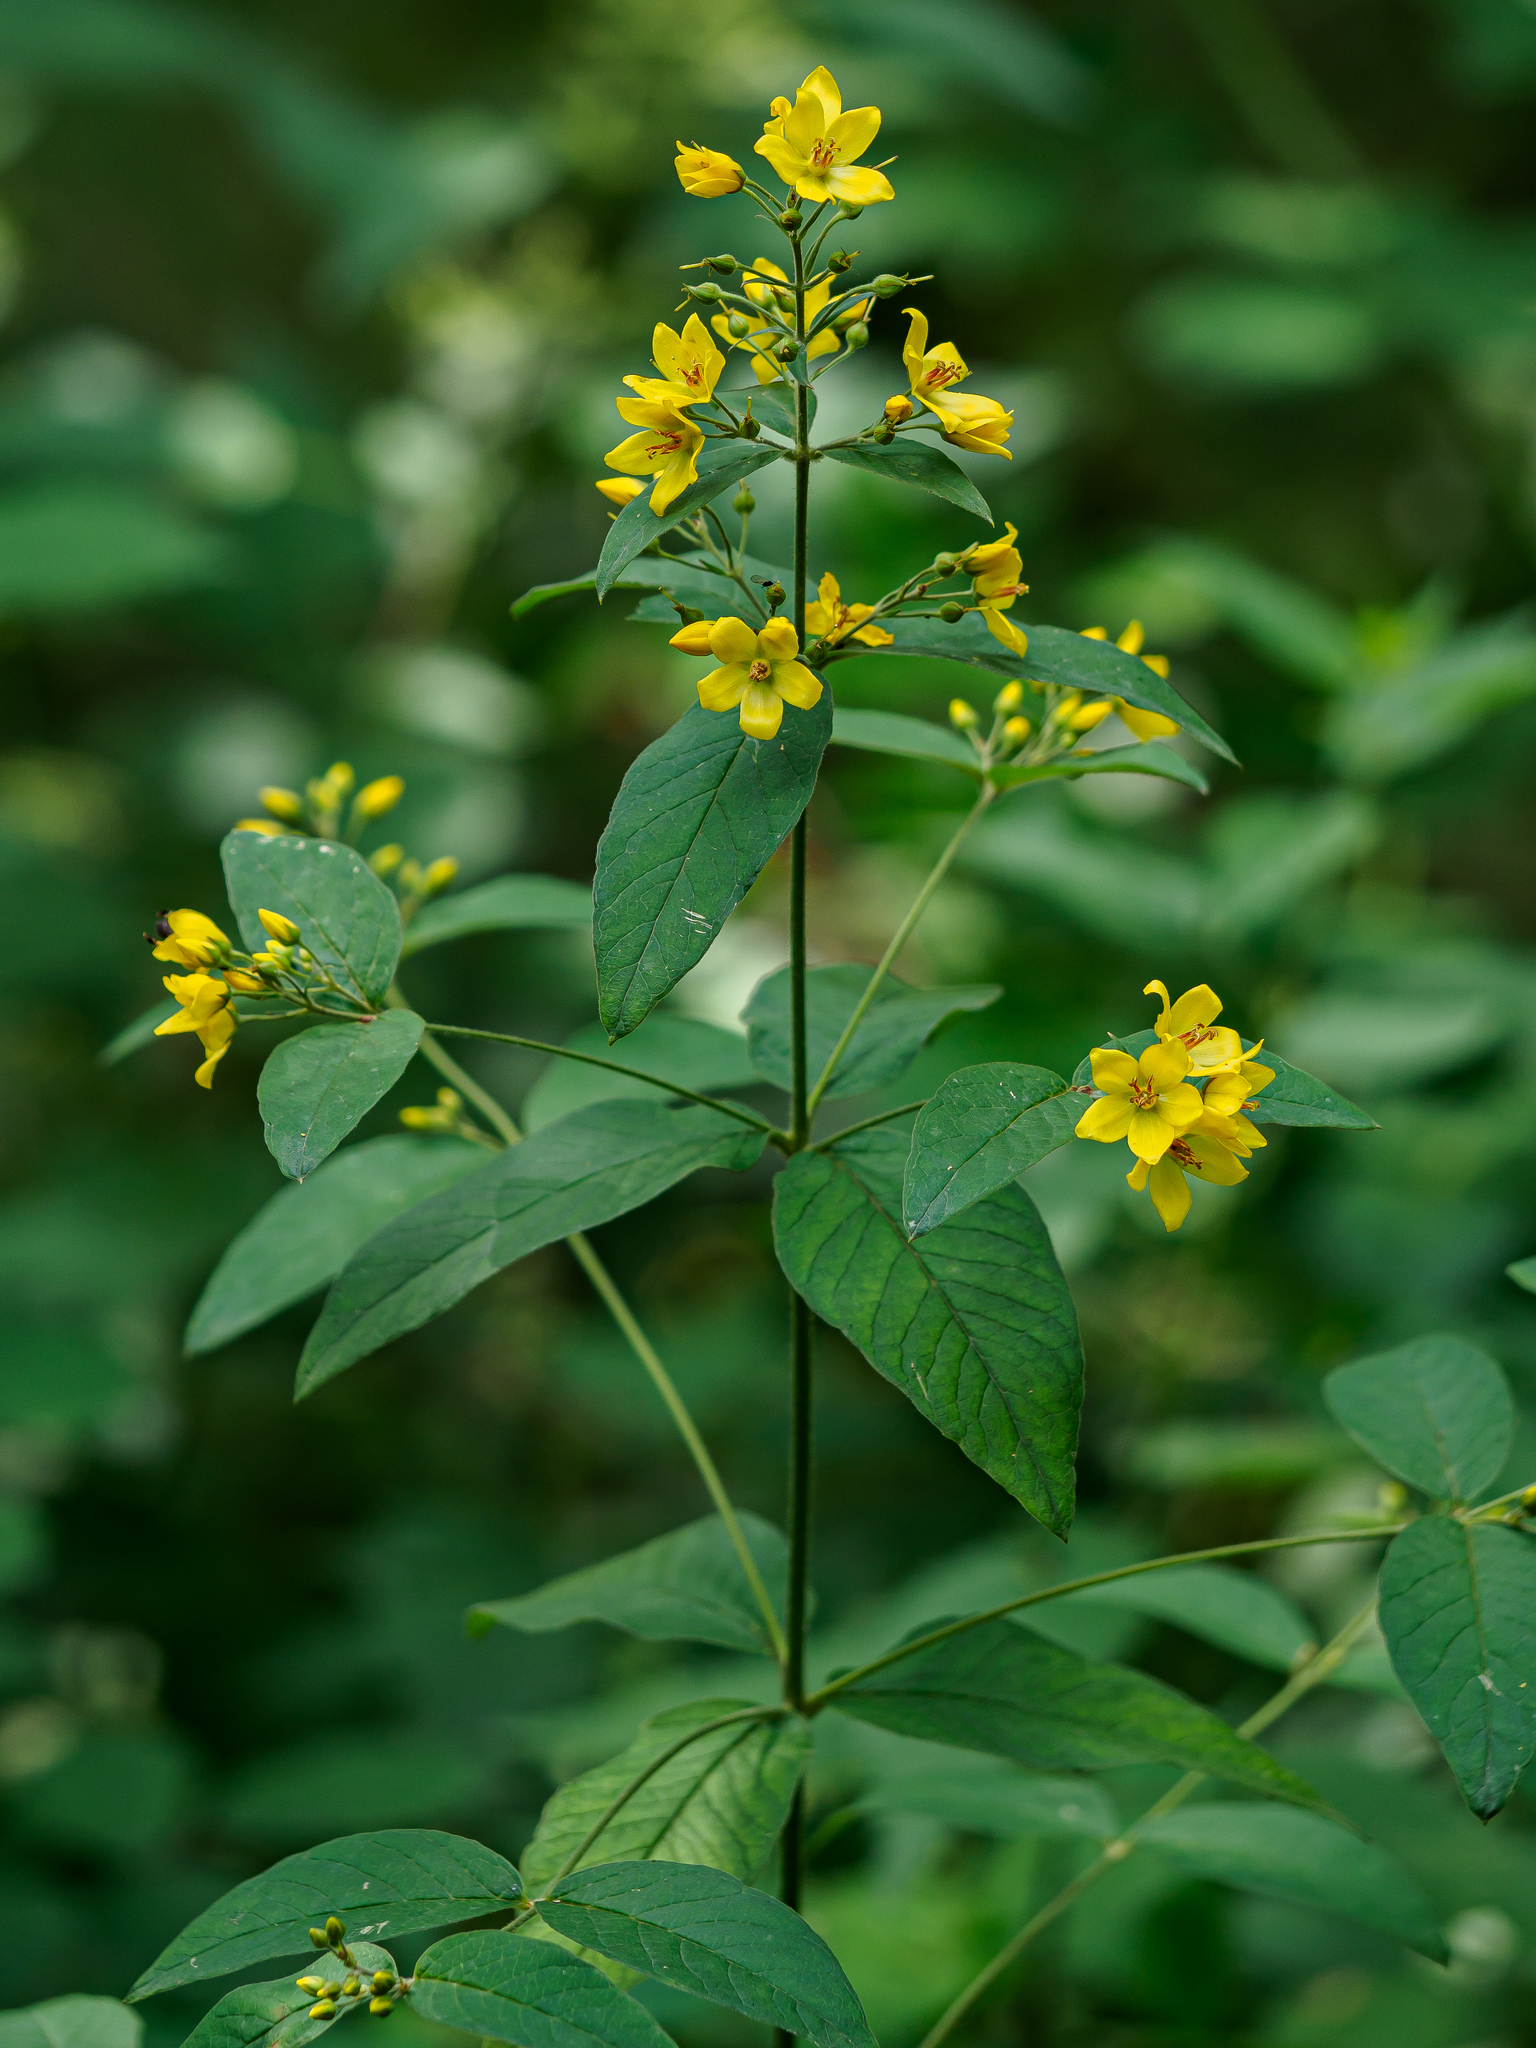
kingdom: Plantae
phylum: Tracheophyta
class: Magnoliopsida
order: Ericales
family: Primulaceae
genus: Lysimachia
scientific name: Lysimachia vulgaris
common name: Yellow loosestrife
